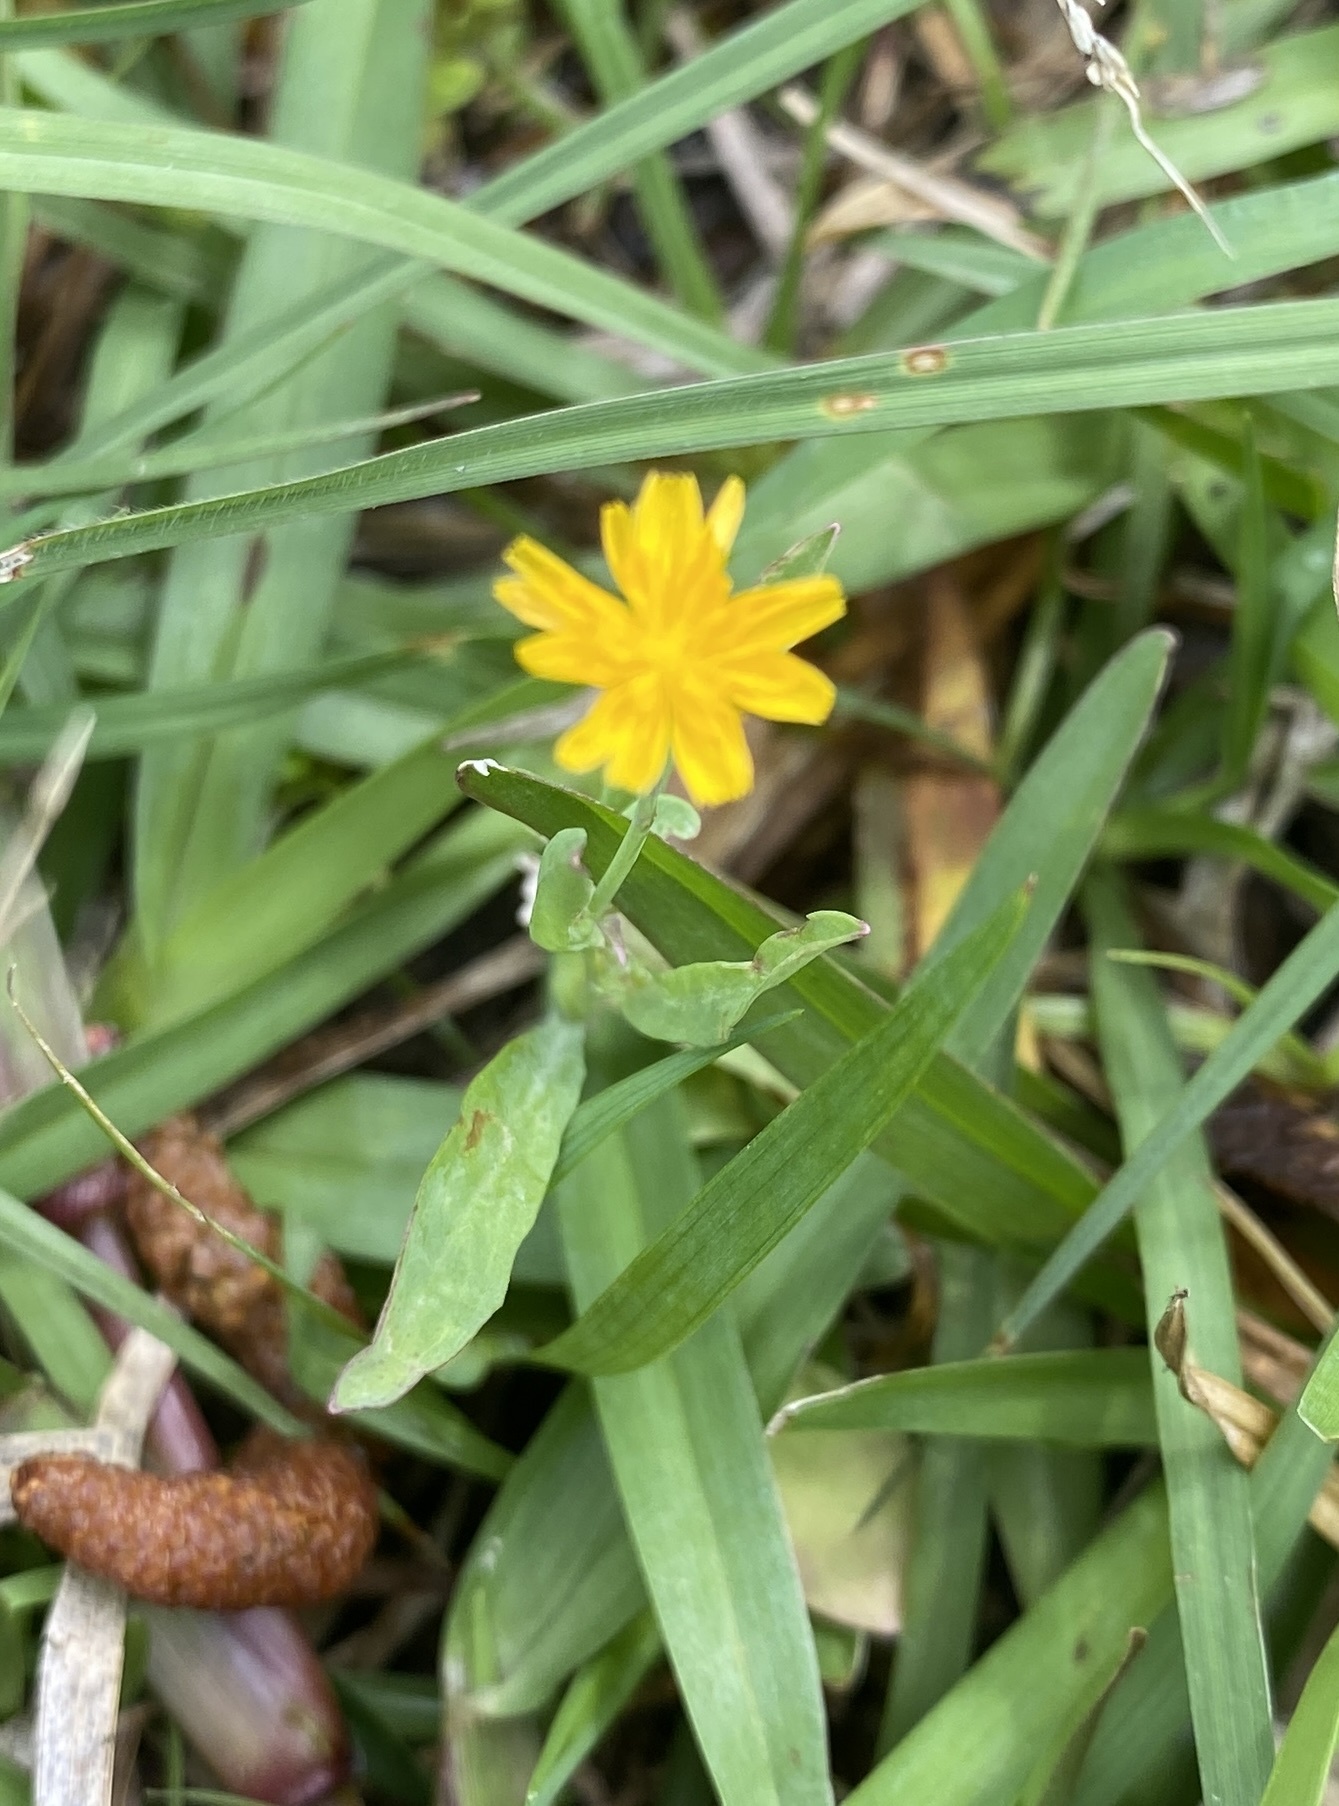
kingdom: Plantae
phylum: Tracheophyta
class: Magnoliopsida
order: Asterales
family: Asteraceae
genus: Krigia
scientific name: Krigia cespitosa
